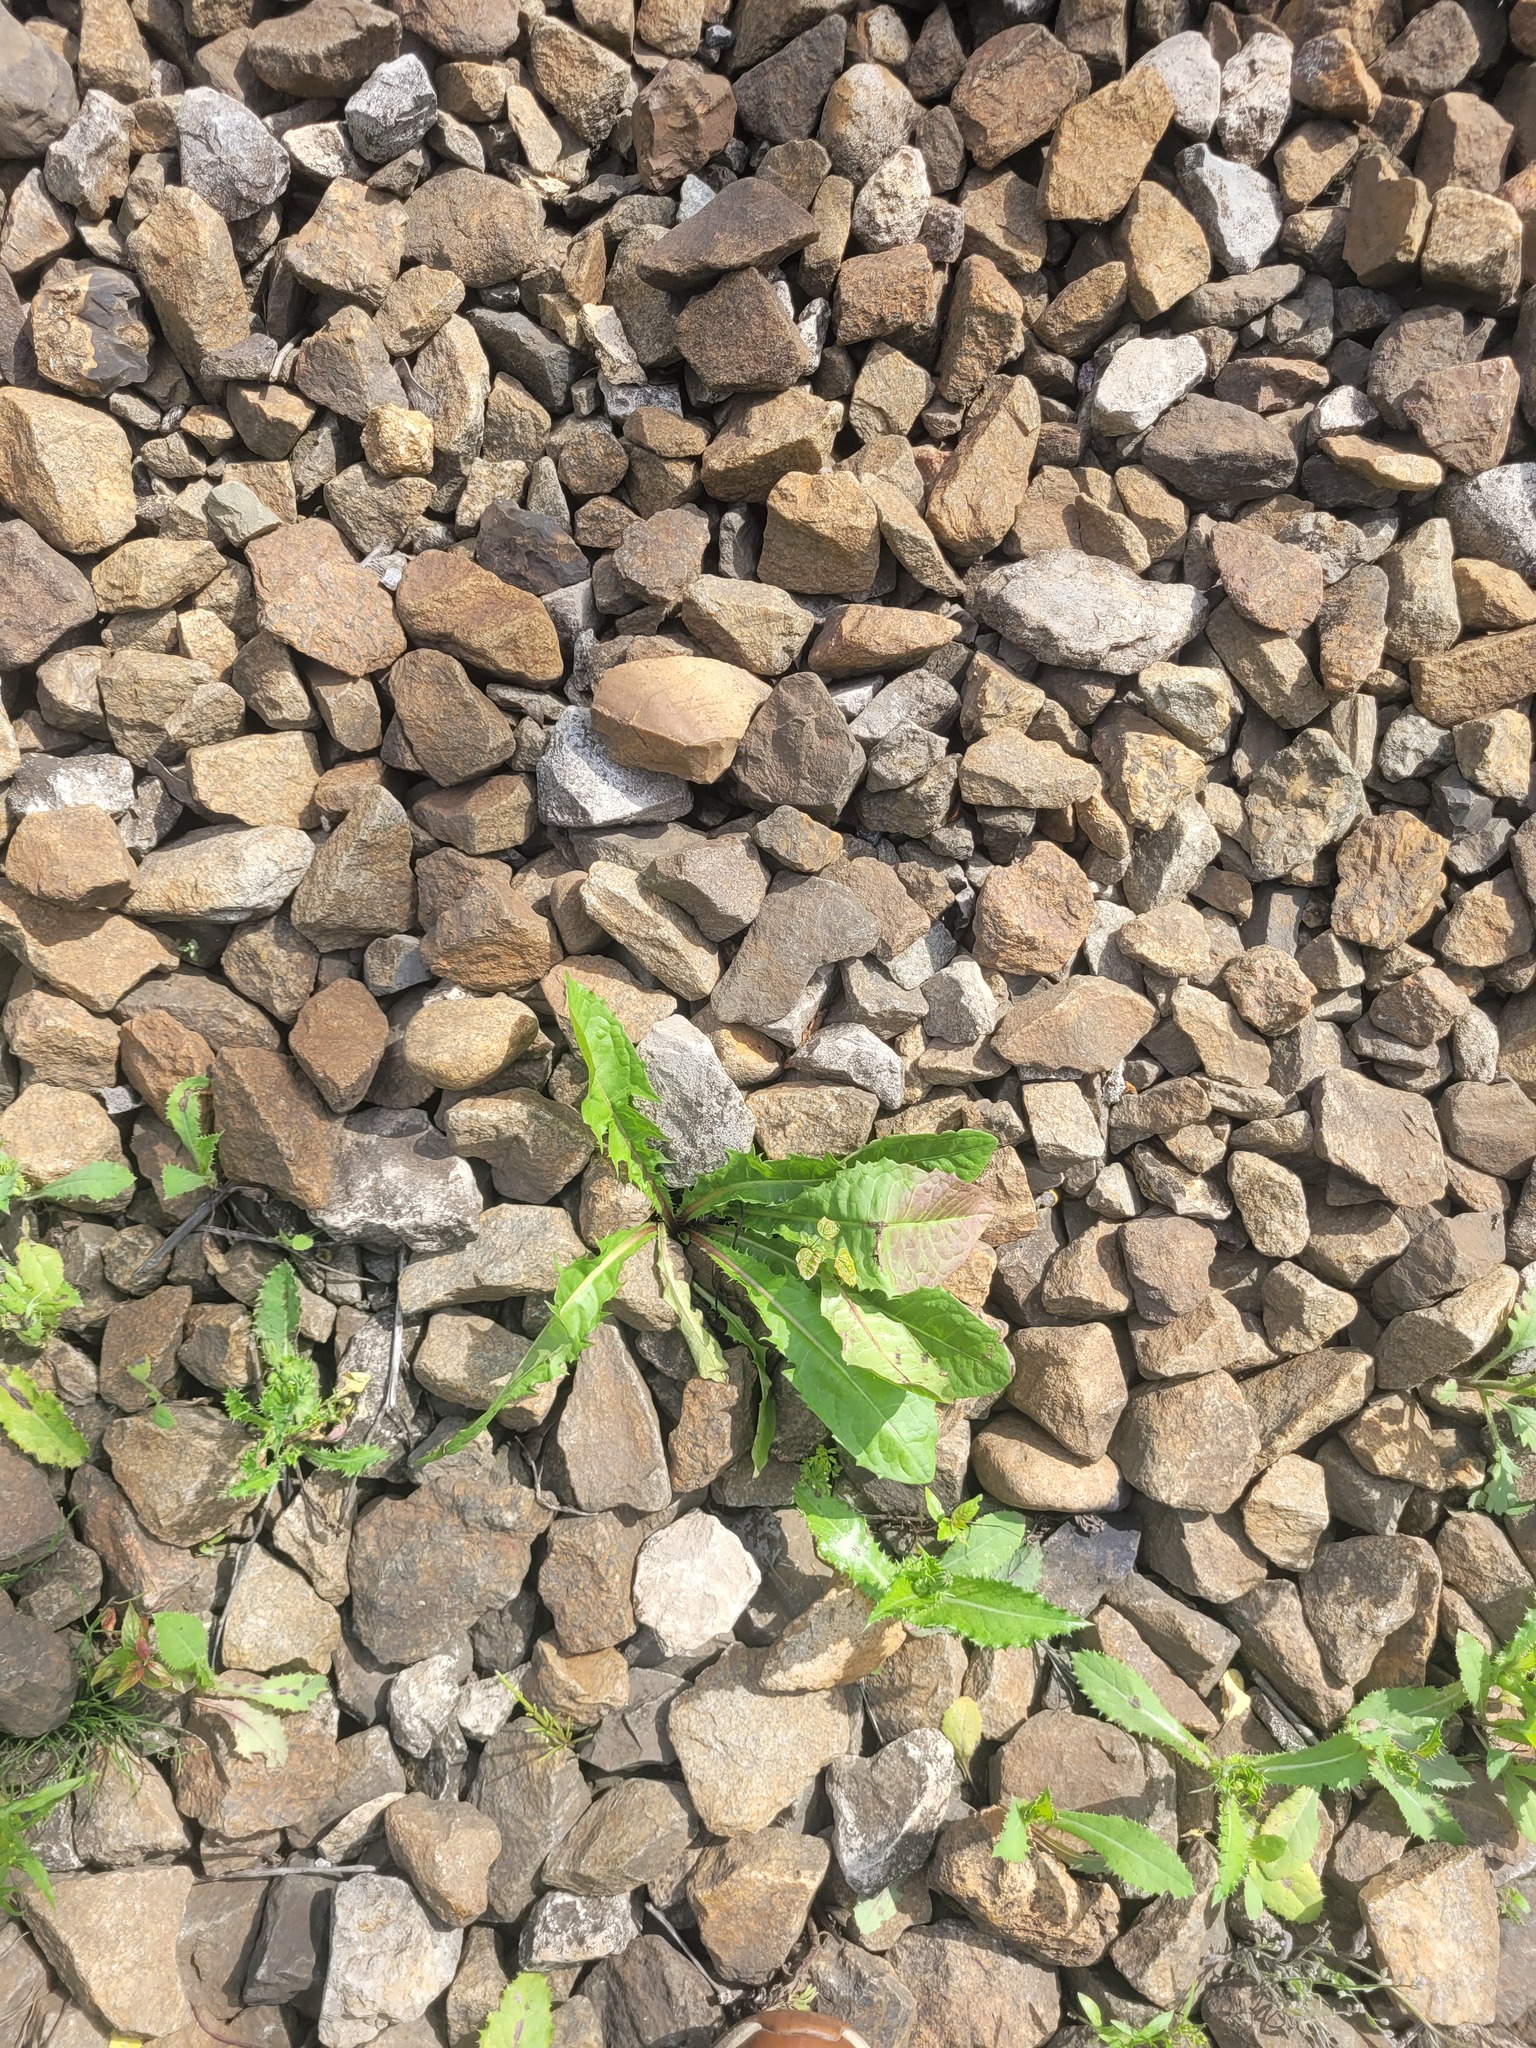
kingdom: Plantae
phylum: Tracheophyta
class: Magnoliopsida
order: Asterales
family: Asteraceae
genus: Taraxacum
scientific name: Taraxacum officinale
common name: Common dandelion
